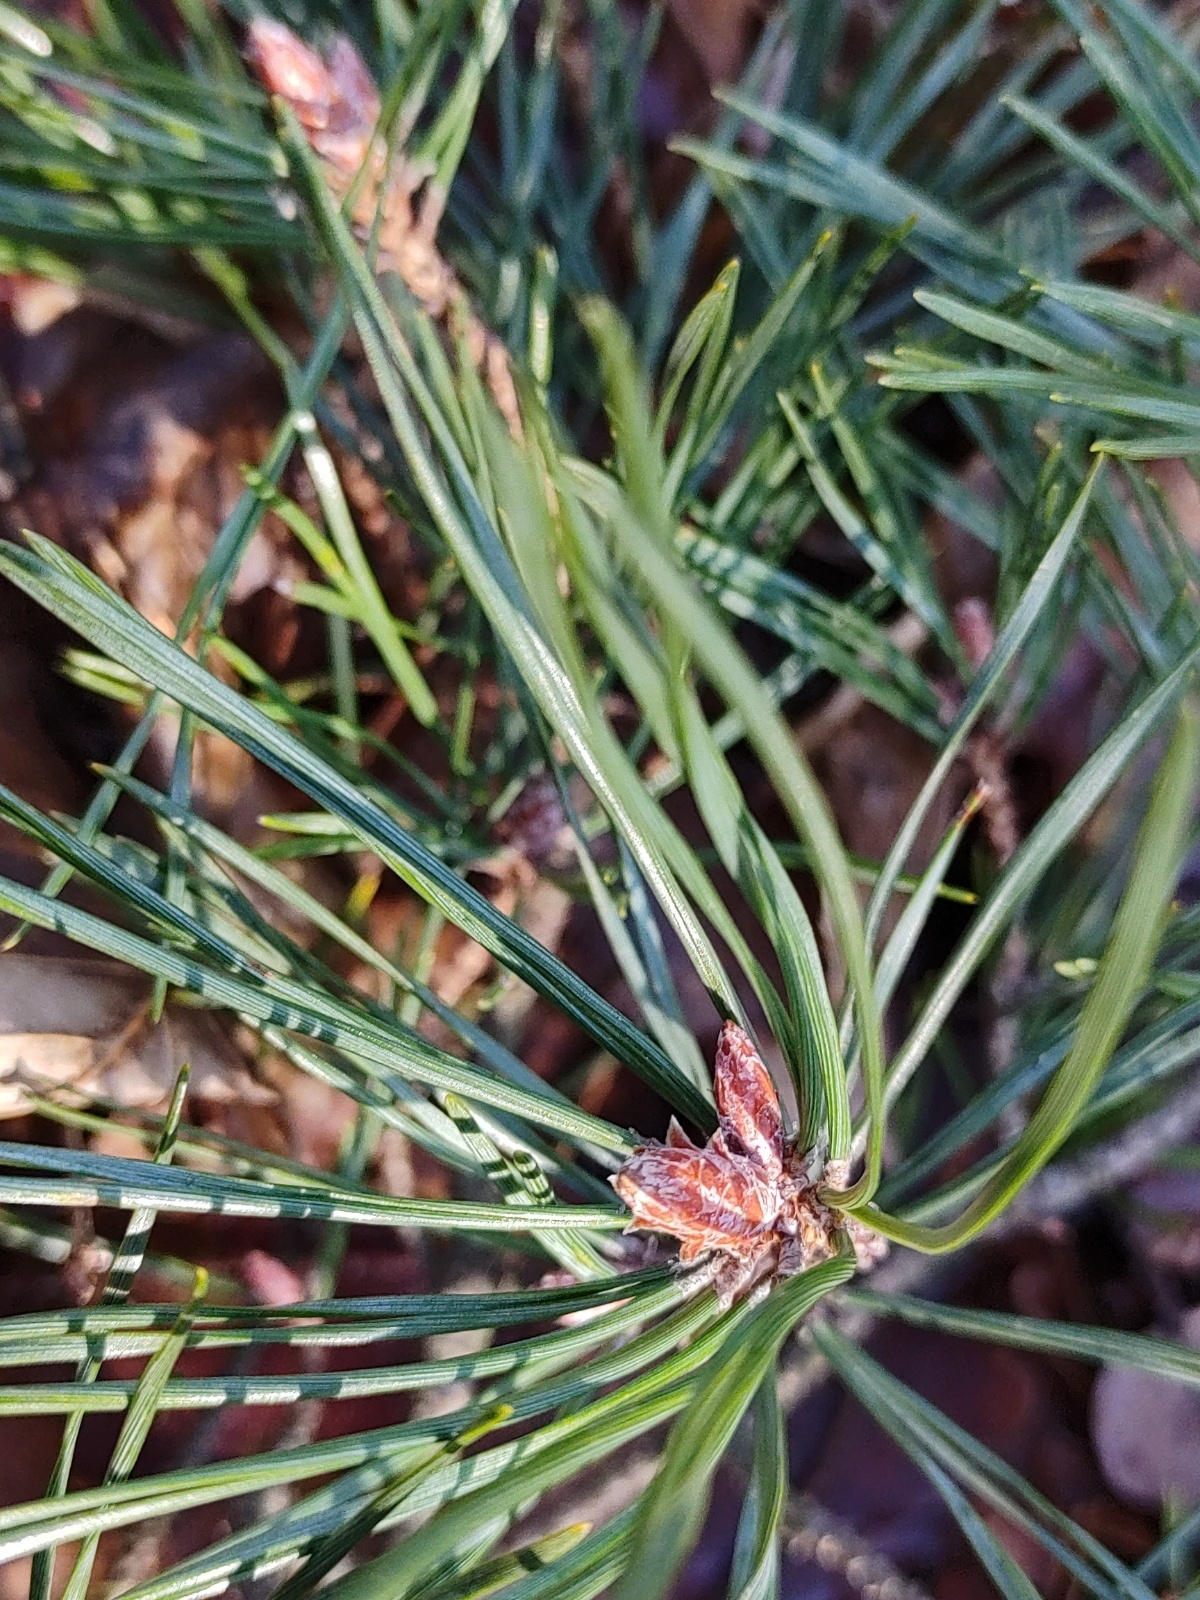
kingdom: Plantae
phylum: Tracheophyta
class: Pinopsida
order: Pinales
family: Pinaceae
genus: Pinus
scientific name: Pinus sylvestris
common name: Scots pine
